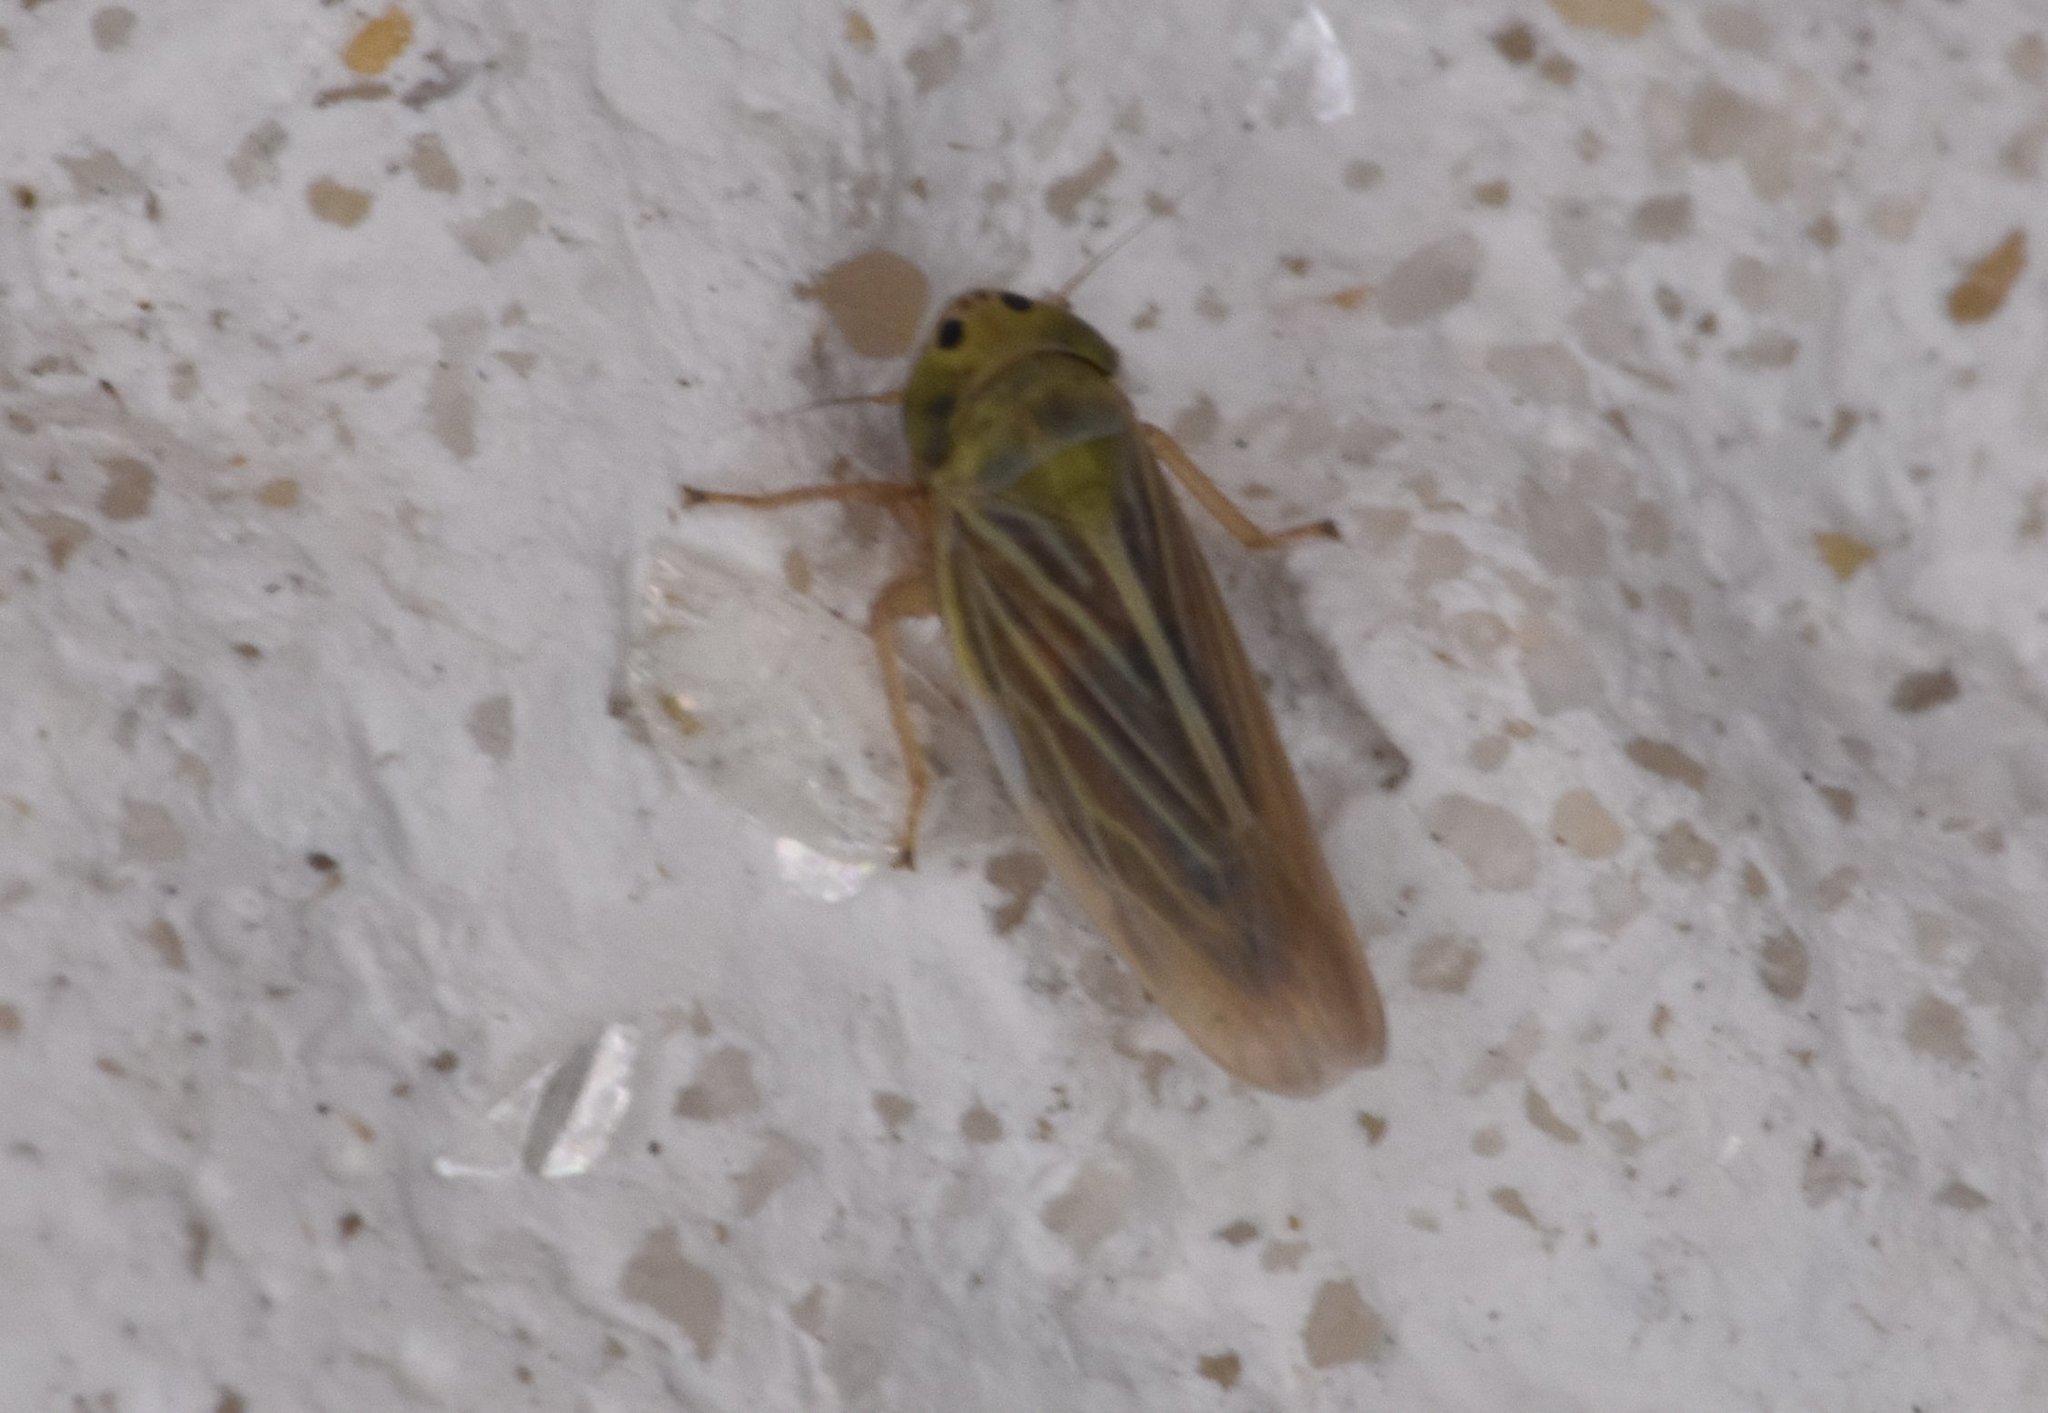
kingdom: Animalia
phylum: Arthropoda
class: Insecta
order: Hemiptera
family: Cicadellidae
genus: Graminella
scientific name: Graminella cognita
